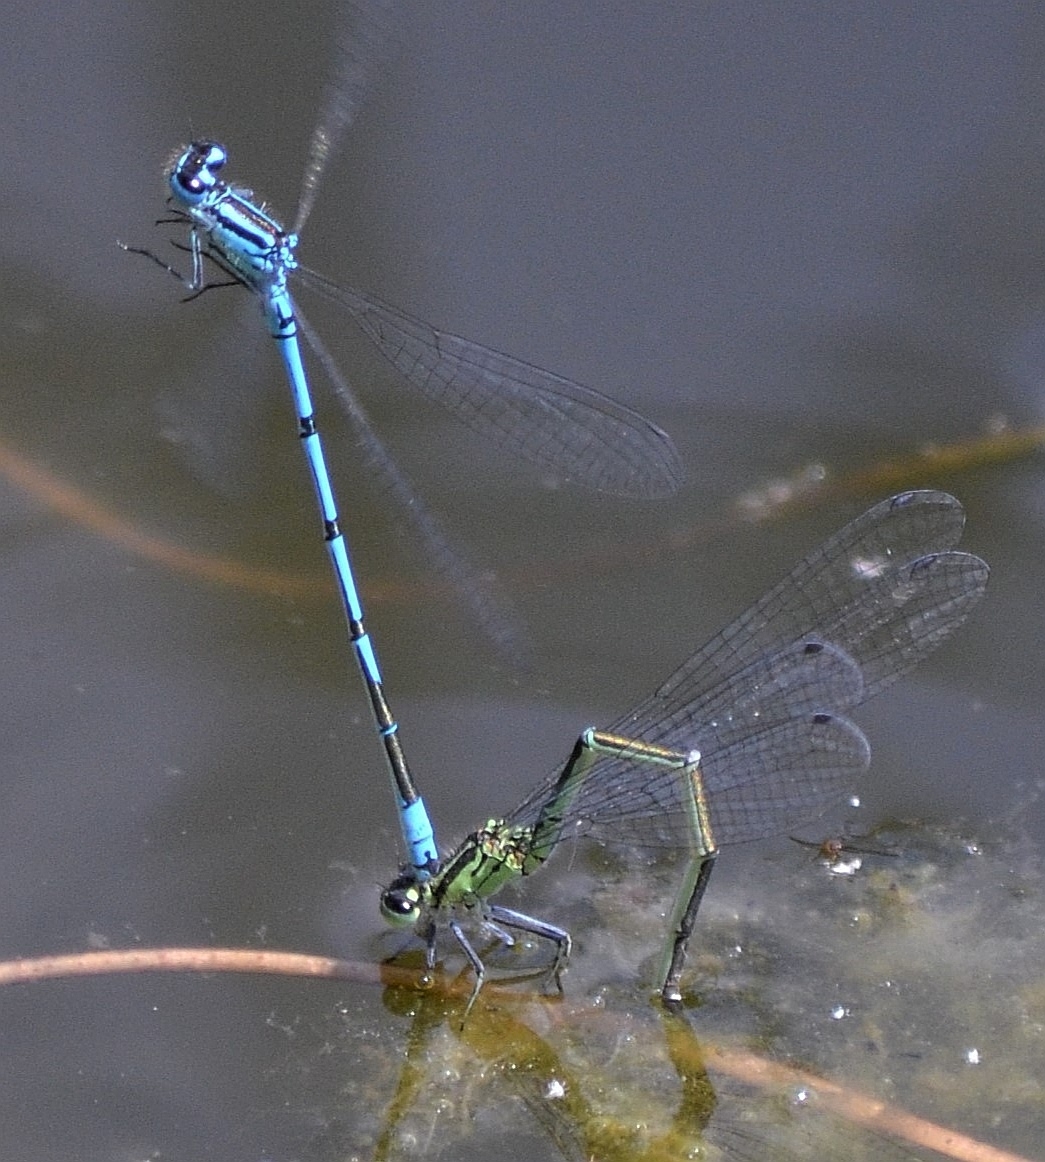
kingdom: Animalia
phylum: Arthropoda
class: Insecta
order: Odonata
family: Coenagrionidae
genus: Coenagrion
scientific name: Coenagrion puella
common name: Azure damselfly
